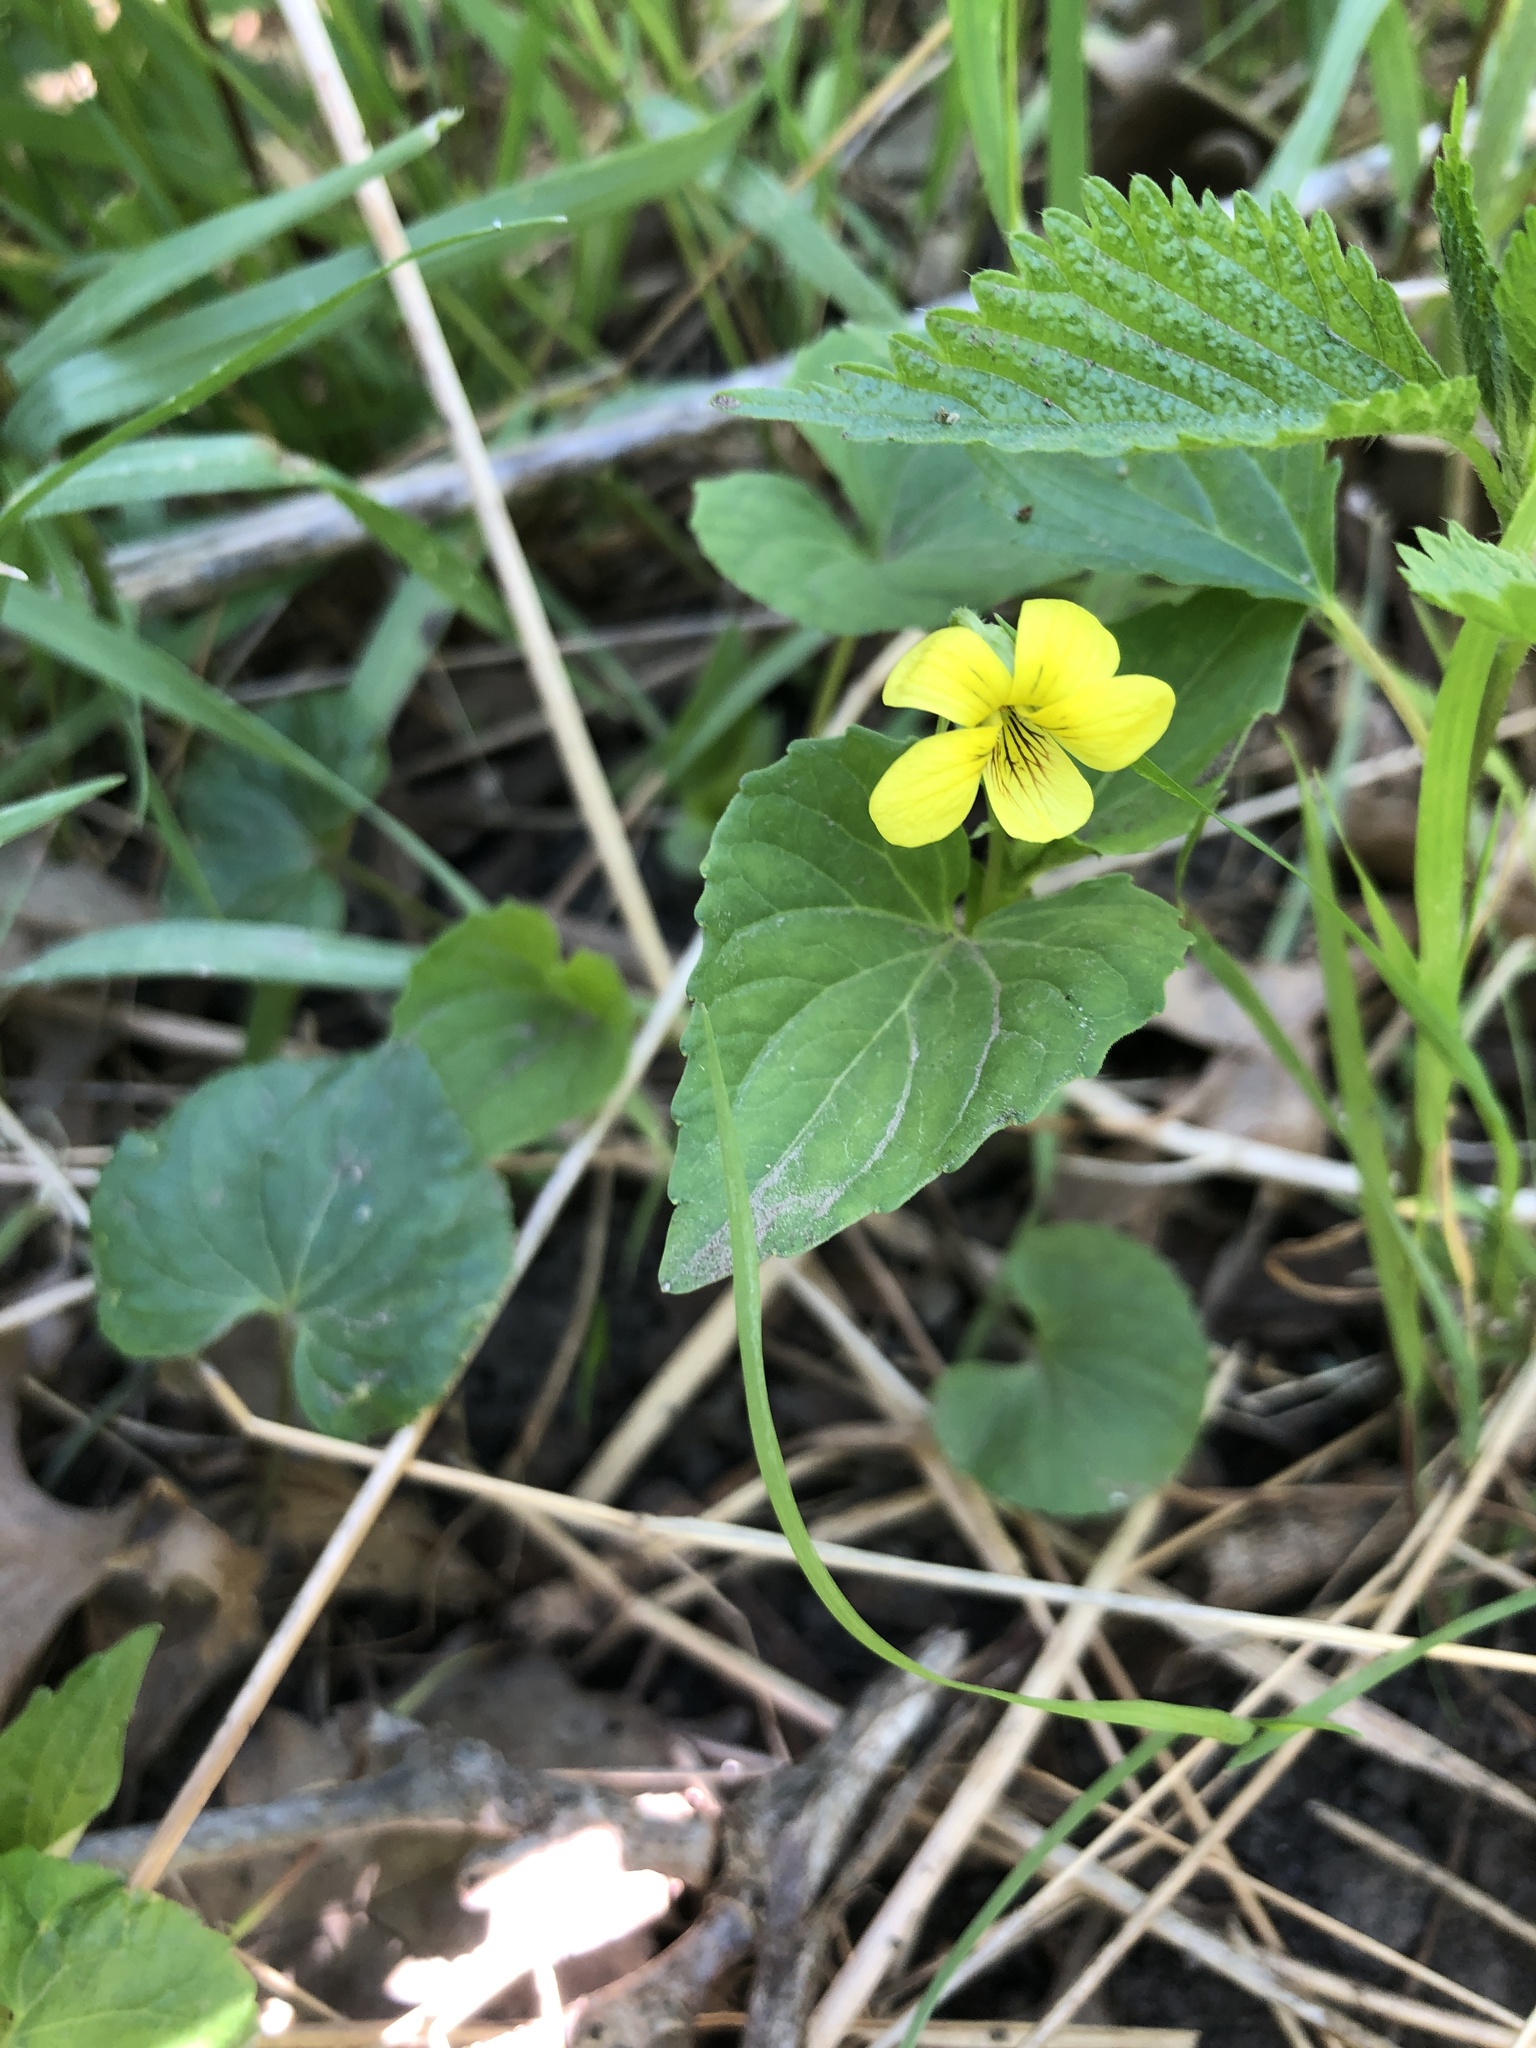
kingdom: Plantae
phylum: Tracheophyta
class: Magnoliopsida
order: Malpighiales
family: Violaceae
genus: Viola
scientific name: Viola eriocarpa
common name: Smooth yellow violet
